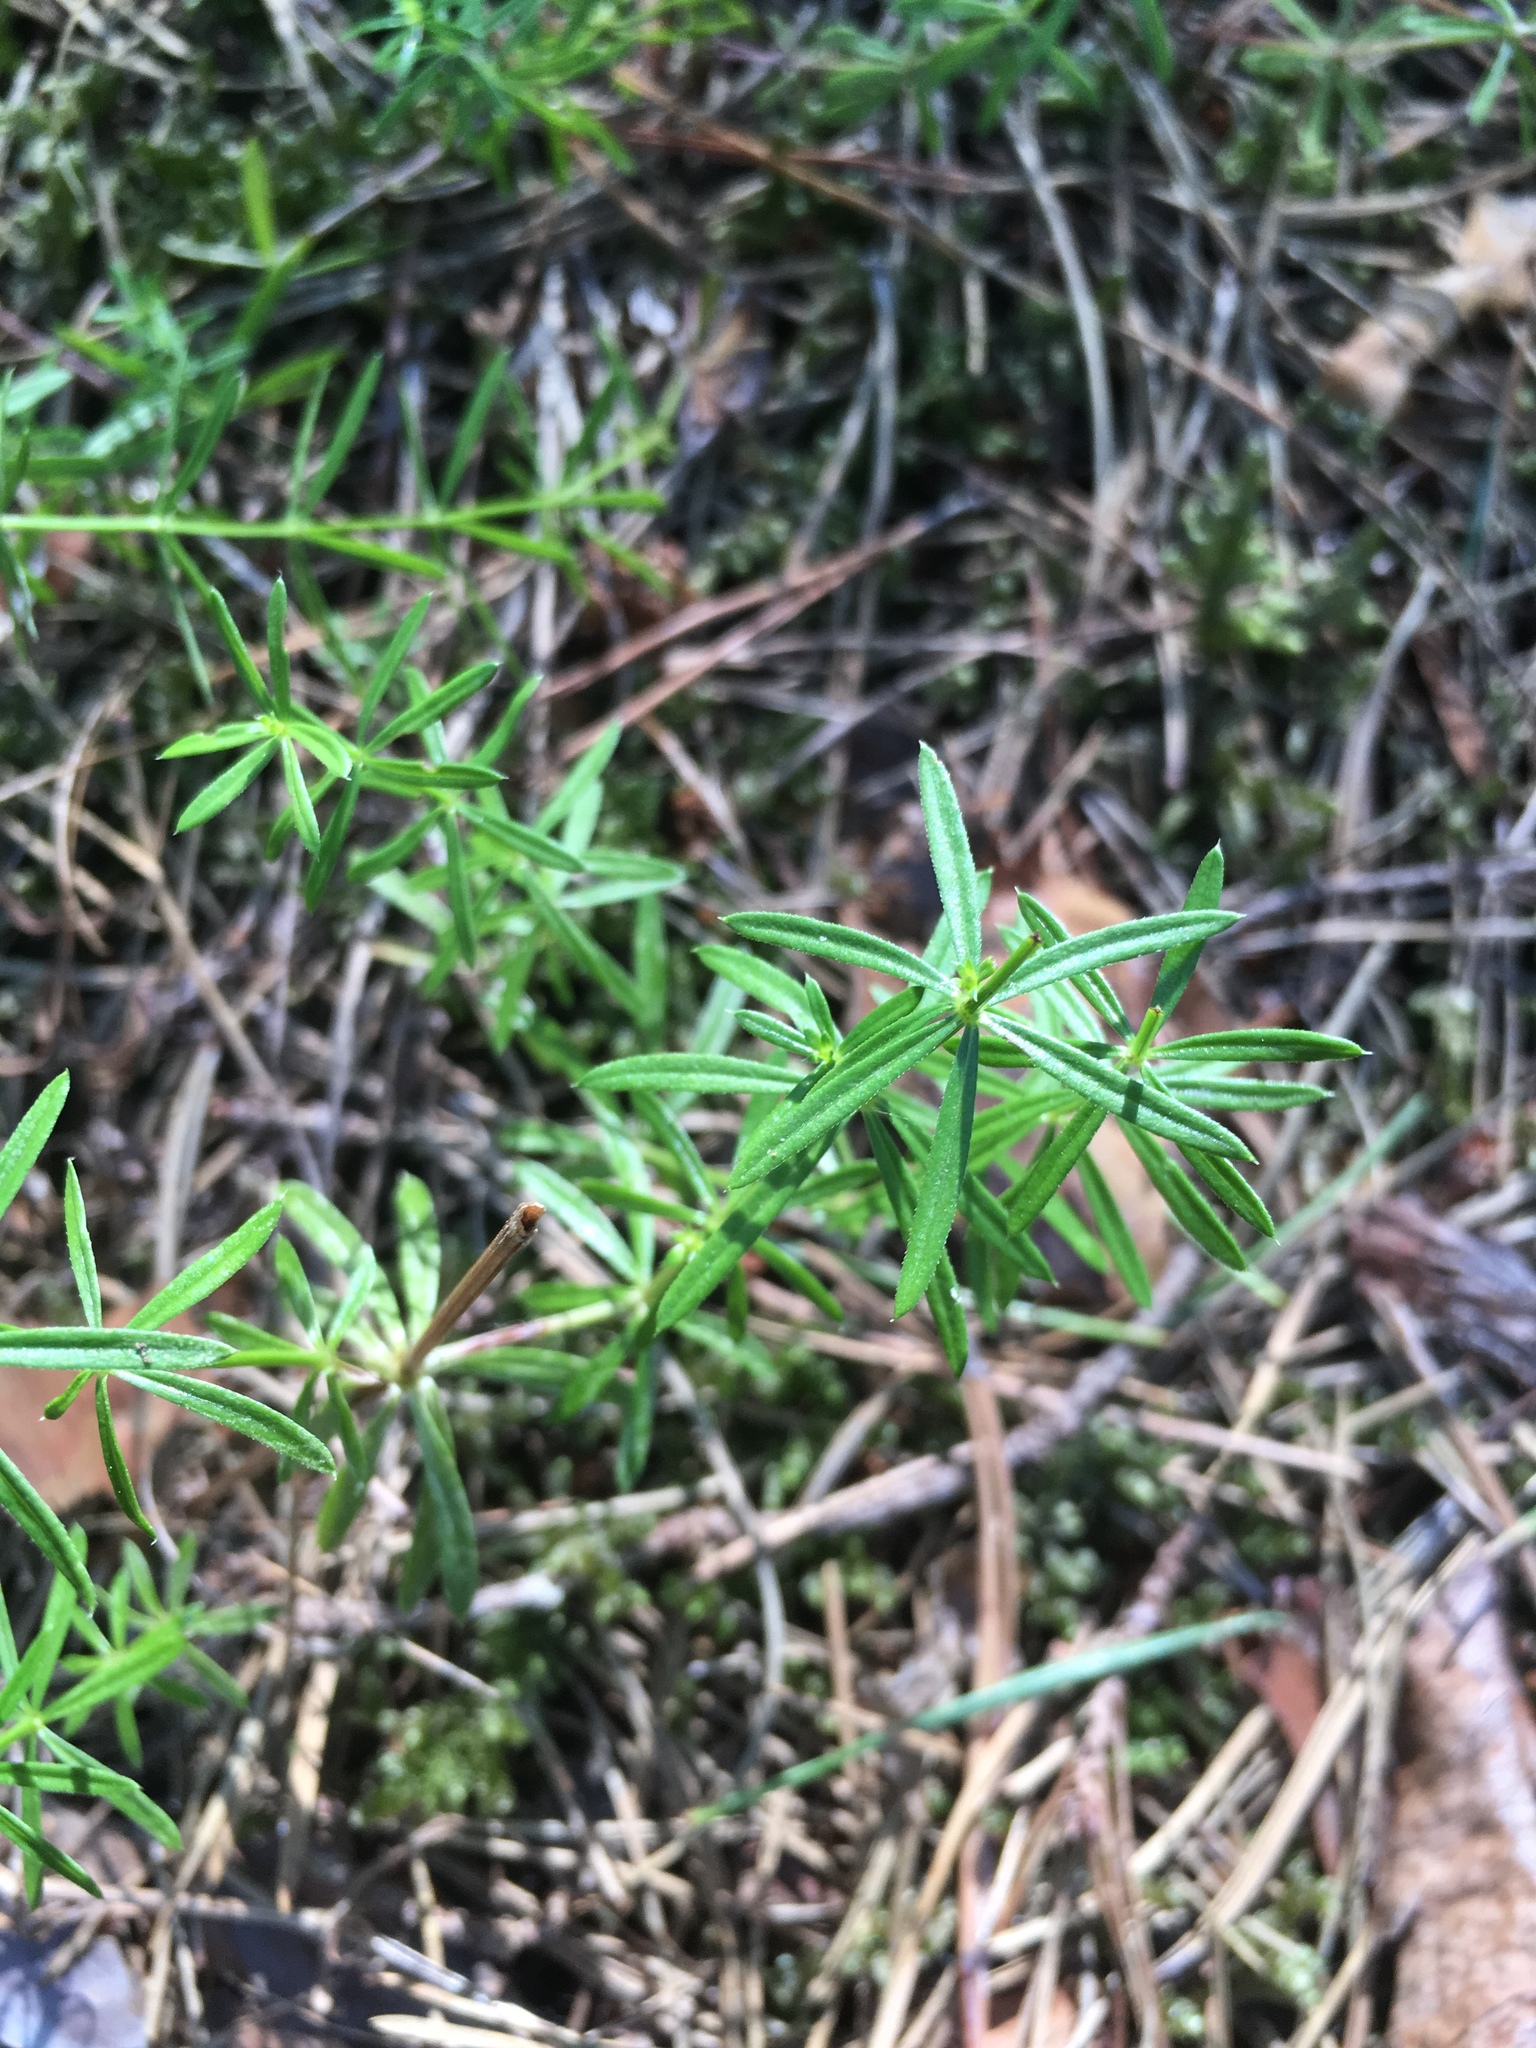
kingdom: Plantae
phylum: Tracheophyta
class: Magnoliopsida
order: Gentianales
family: Rubiaceae
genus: Galium
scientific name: Galium aparine
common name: Cleavers
